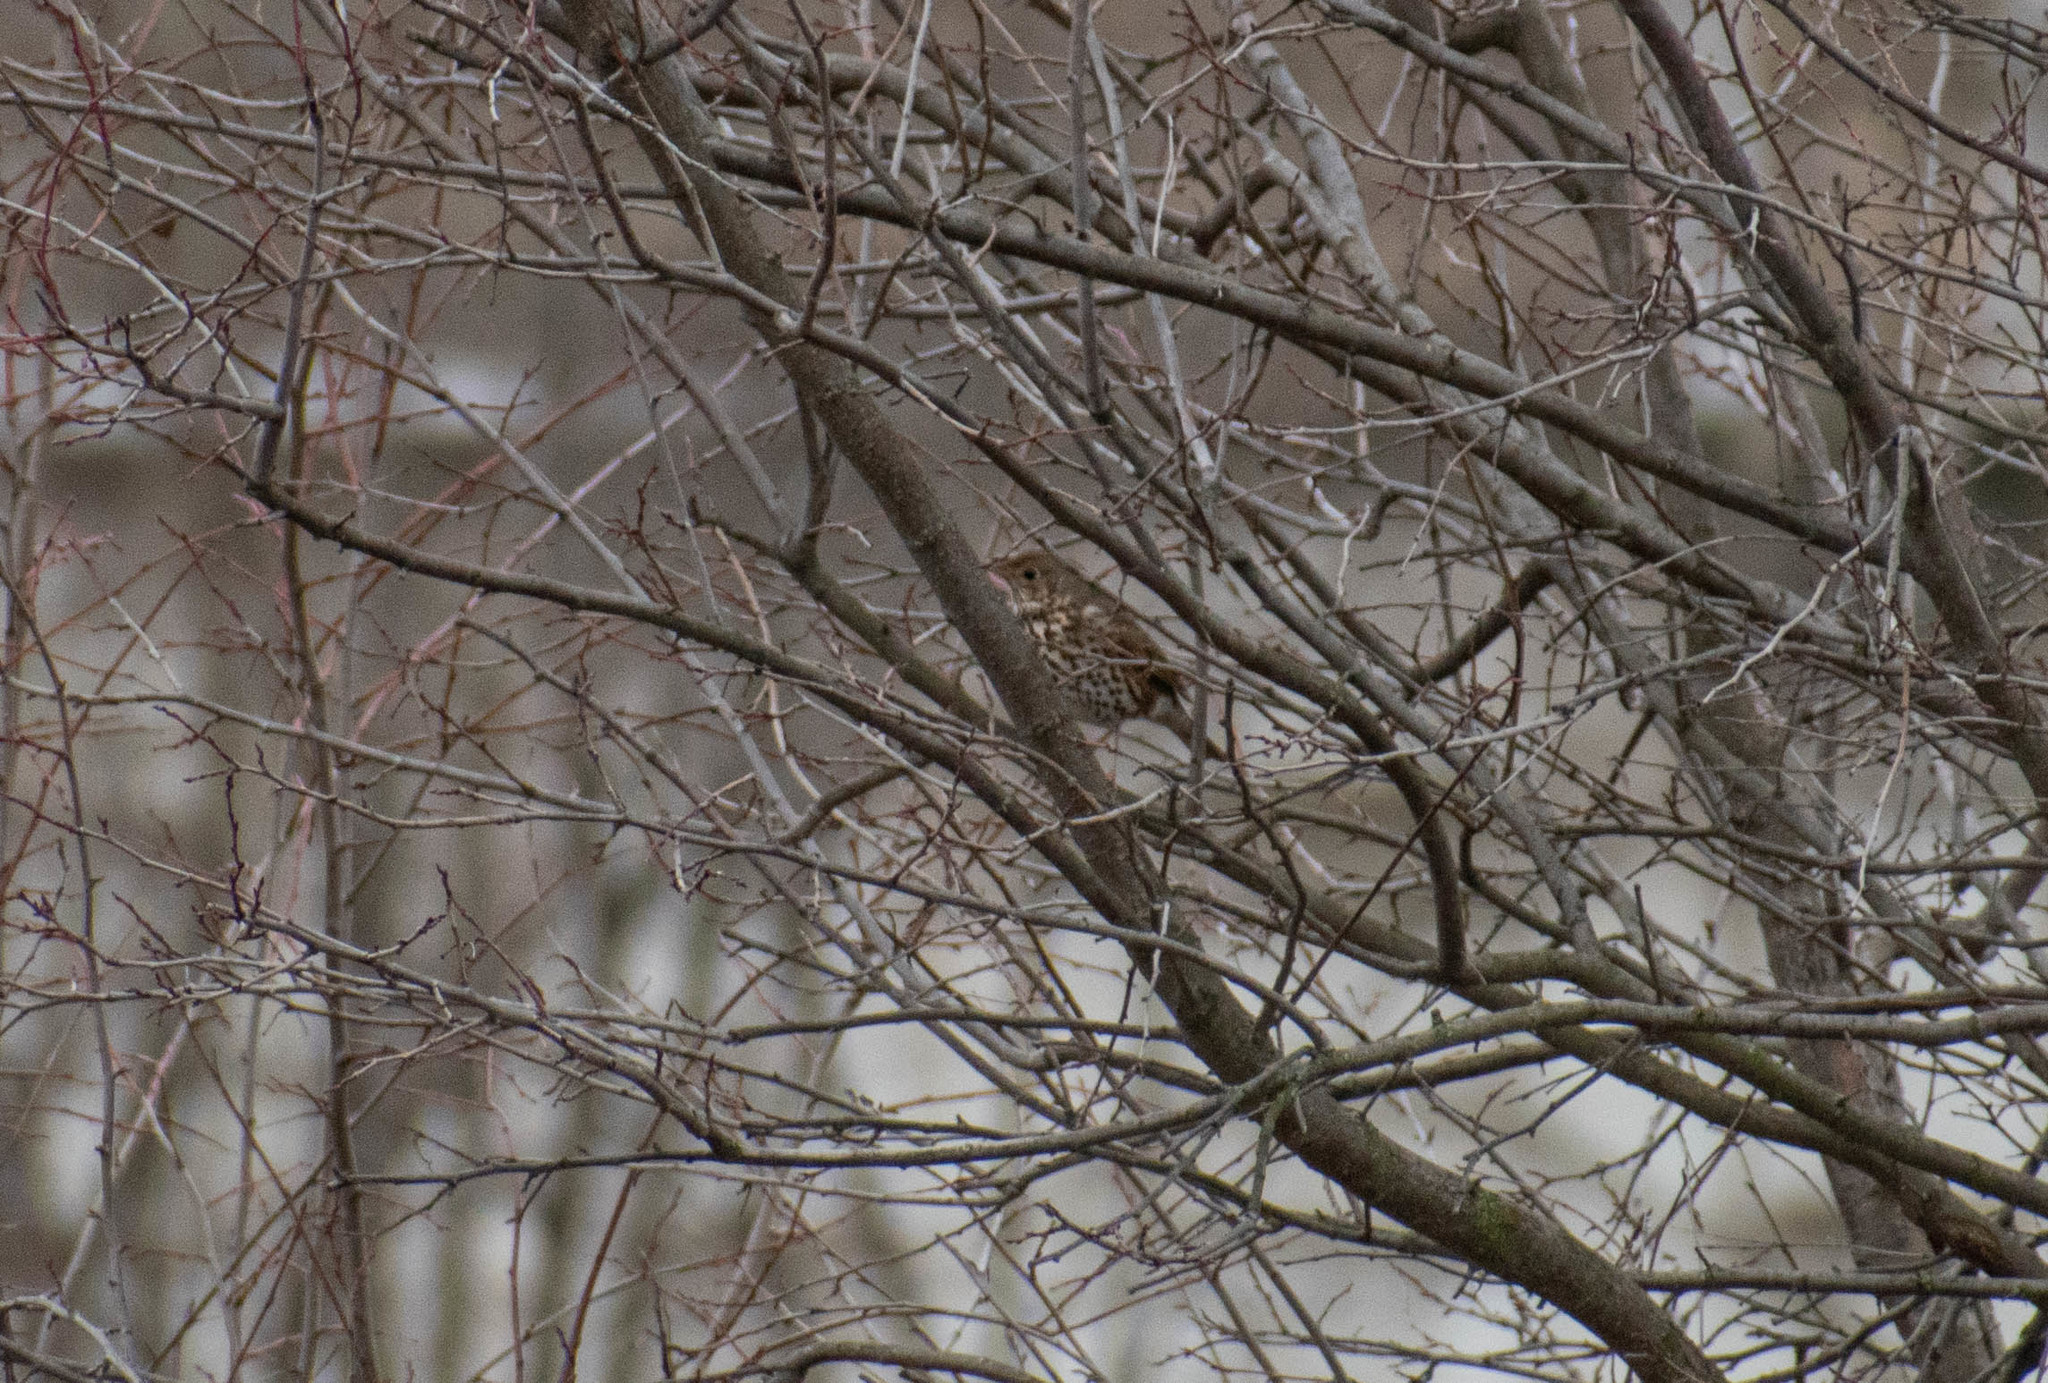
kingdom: Animalia
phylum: Chordata
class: Aves
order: Passeriformes
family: Turdidae
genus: Turdus
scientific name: Turdus philomelos
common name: Song thrush
